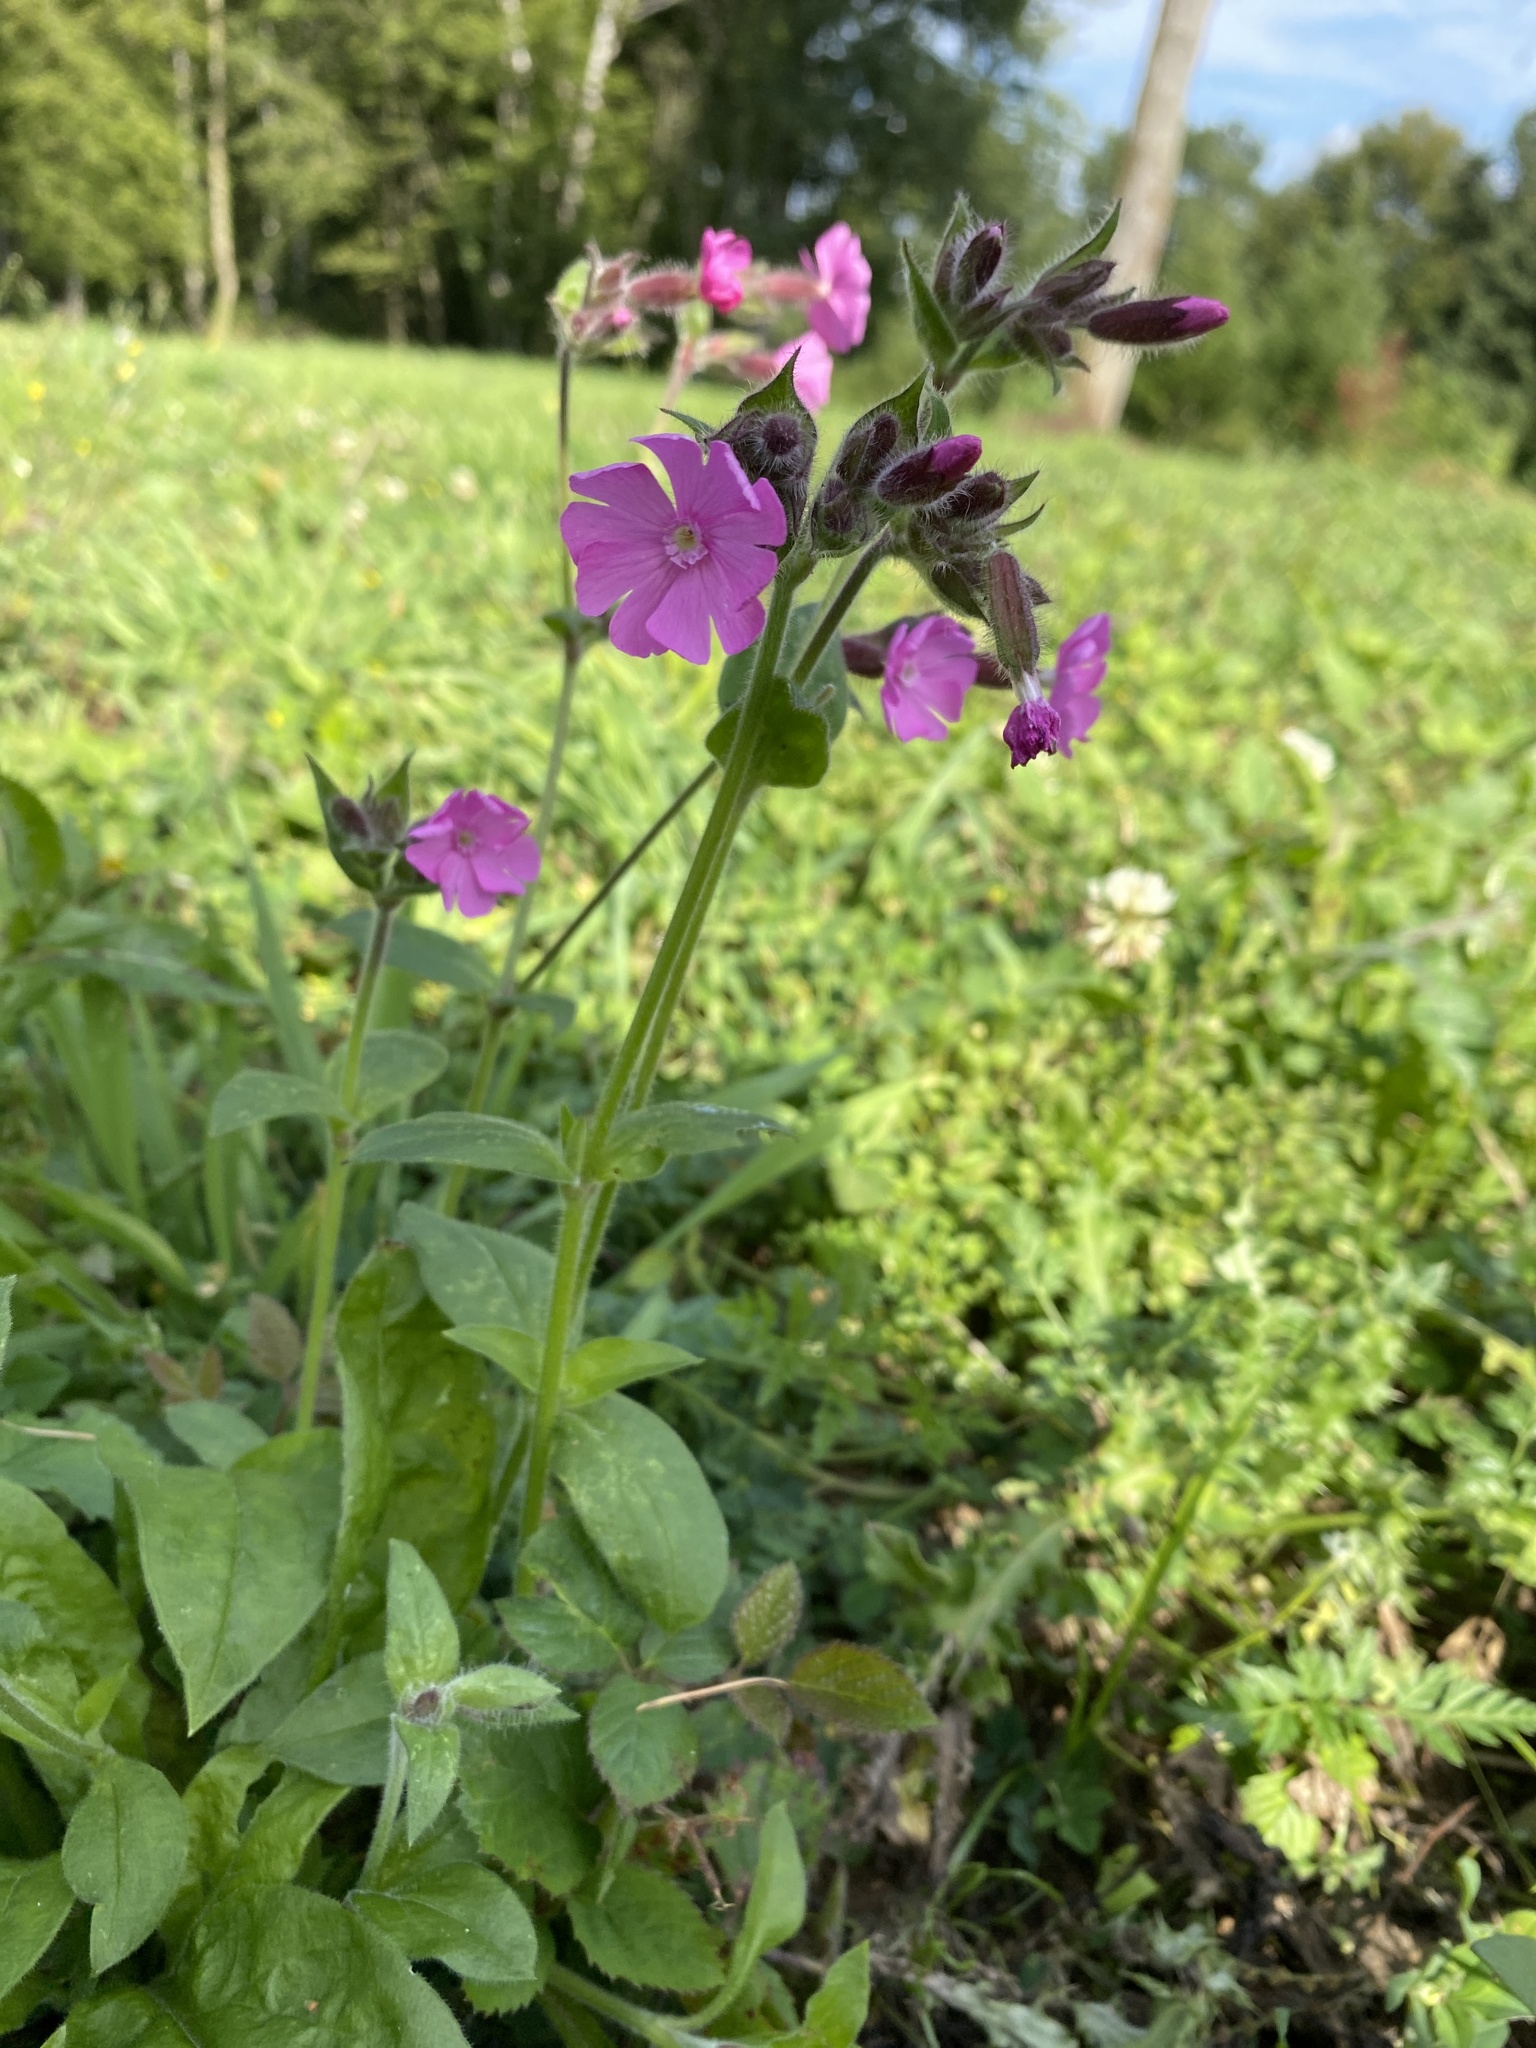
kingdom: Plantae
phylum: Tracheophyta
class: Magnoliopsida
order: Caryophyllales
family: Caryophyllaceae
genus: Silene
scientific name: Silene dioica
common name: Red campion
